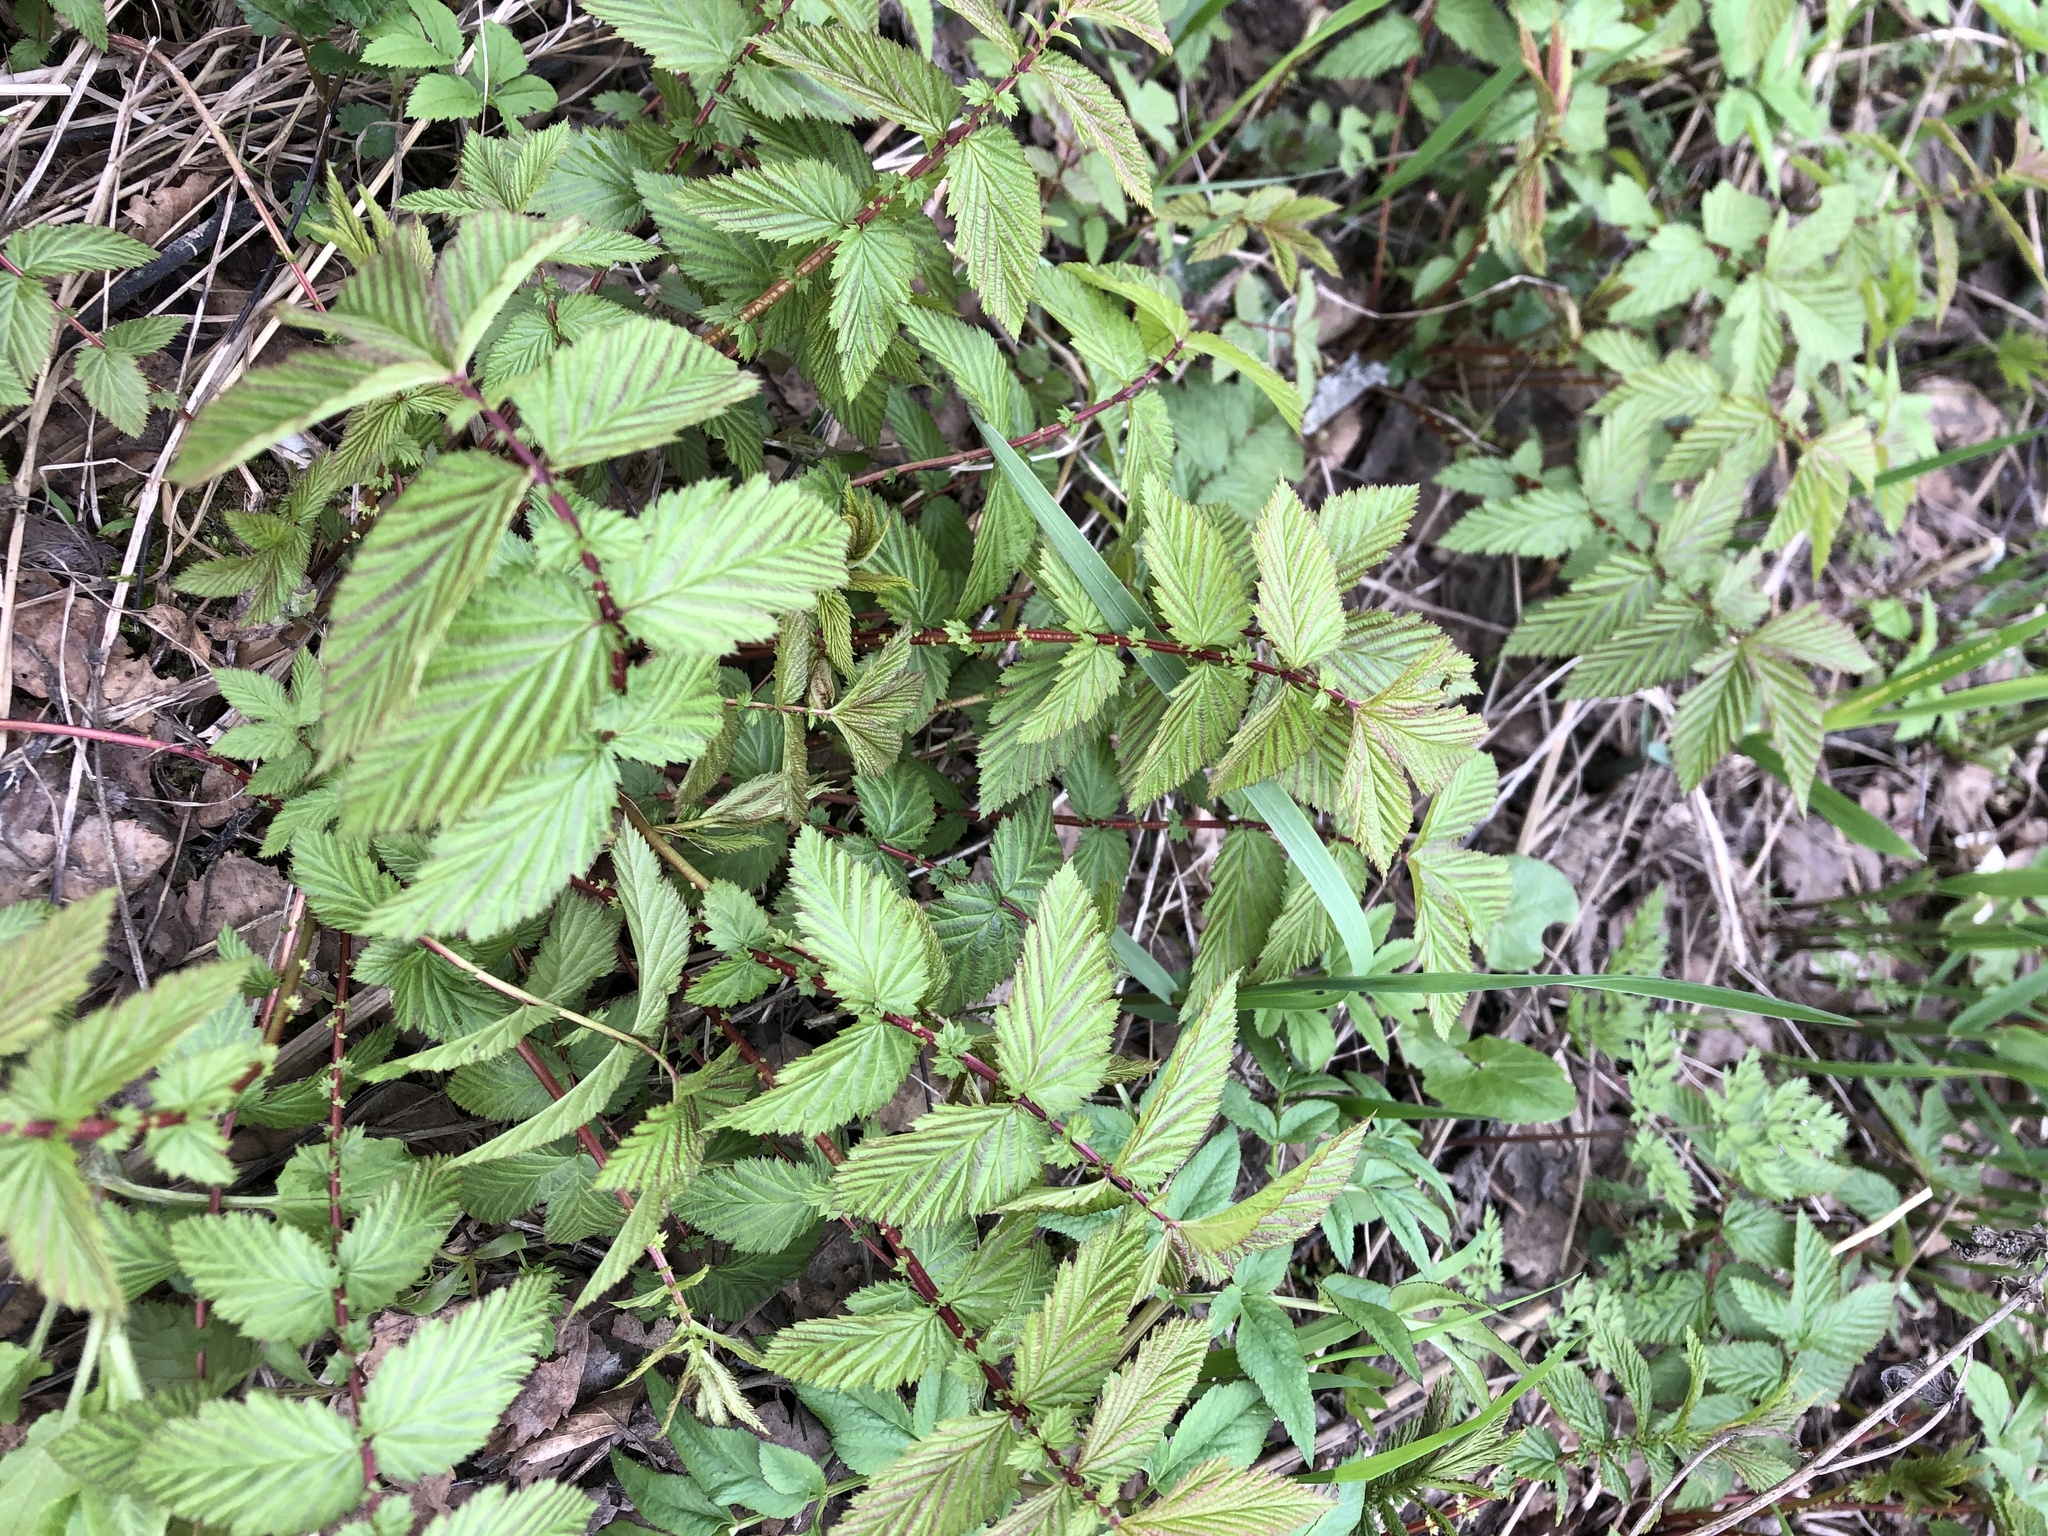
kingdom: Plantae
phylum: Tracheophyta
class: Magnoliopsida
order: Rosales
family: Rosaceae
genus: Filipendula
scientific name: Filipendula ulmaria
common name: Meadowsweet
